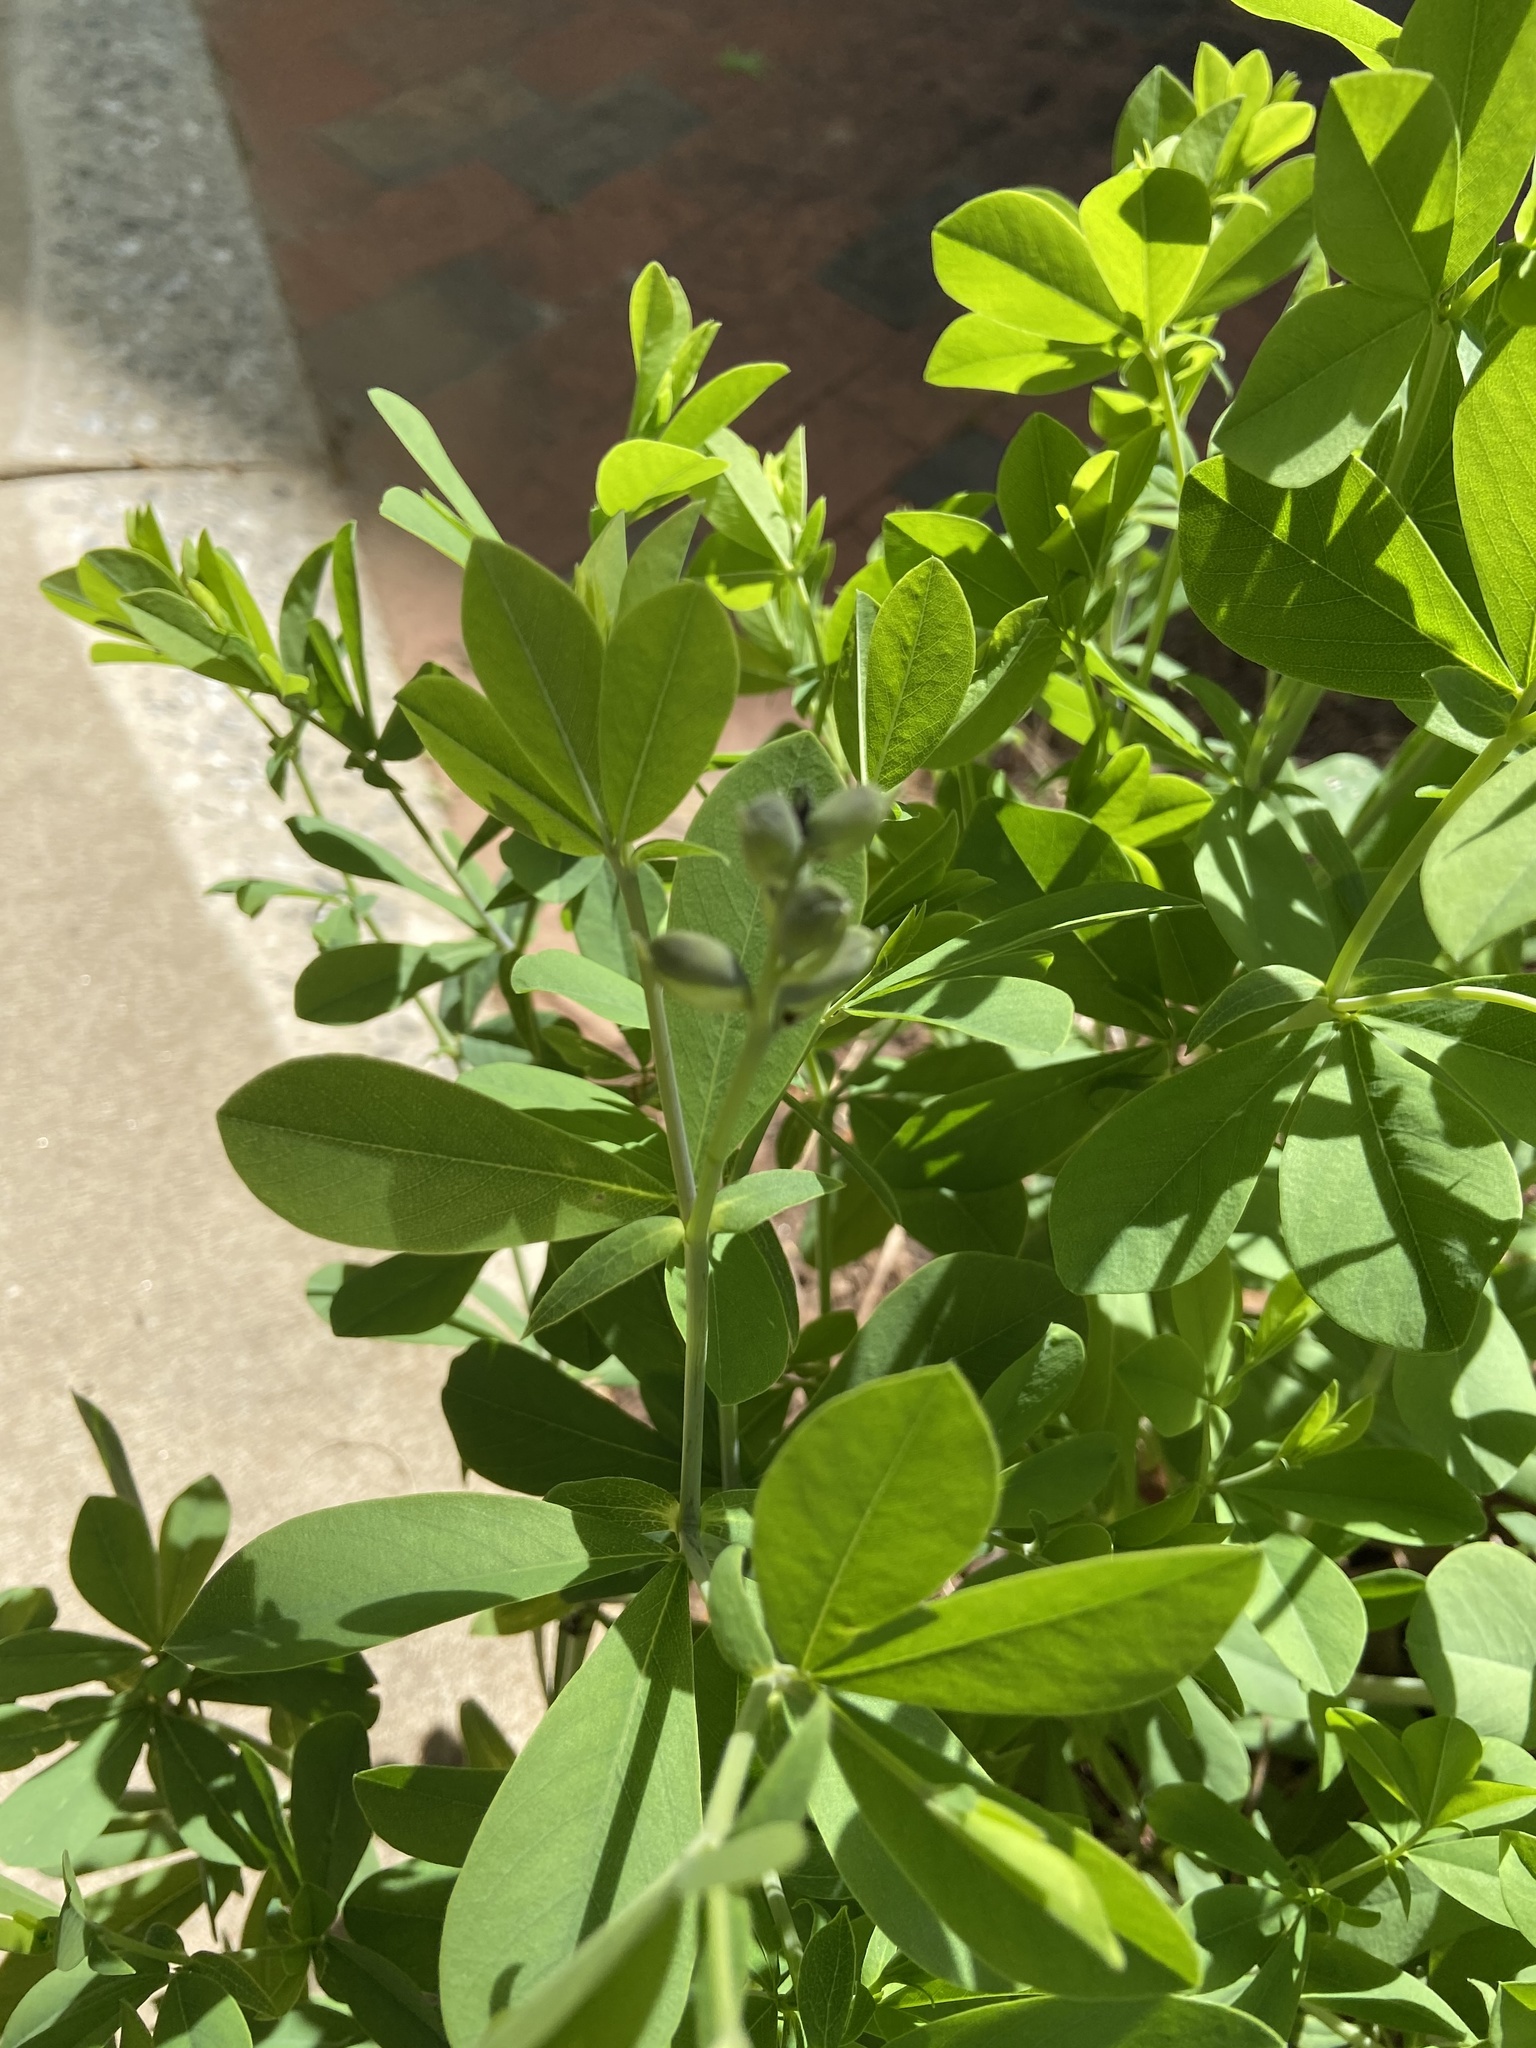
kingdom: Plantae
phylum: Tracheophyta
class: Magnoliopsida
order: Fabales
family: Fabaceae
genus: Baptisia
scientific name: Baptisia australis
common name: Blue false indigo
